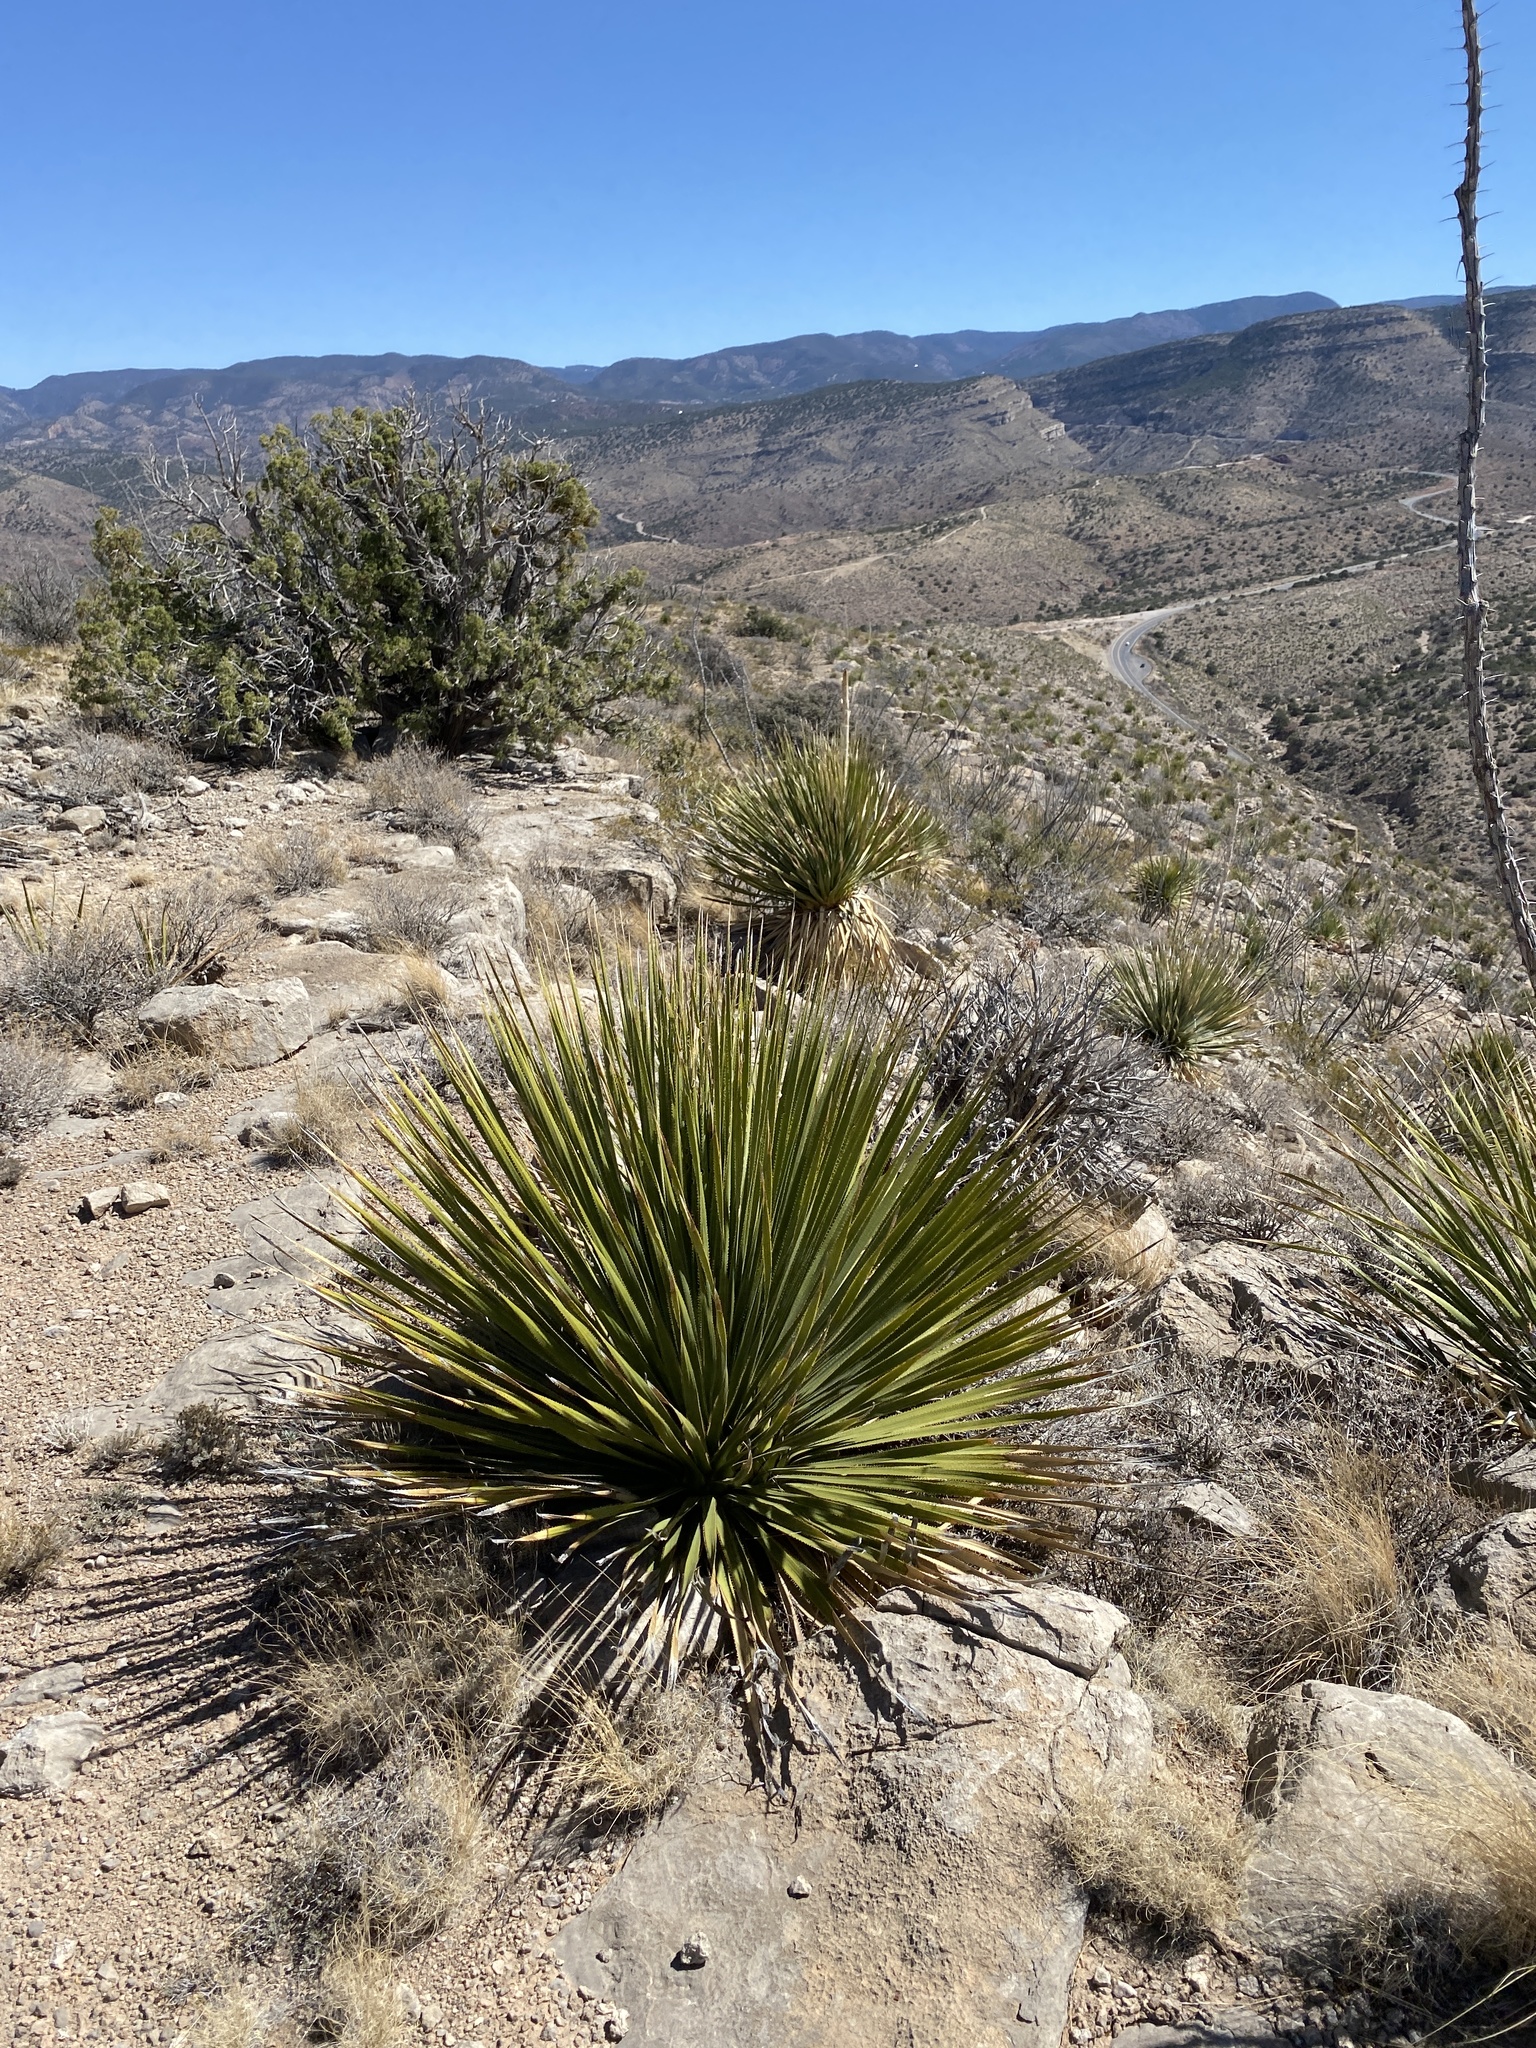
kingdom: Plantae
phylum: Tracheophyta
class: Liliopsida
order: Asparagales
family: Asparagaceae
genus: Dasylirion
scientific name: Dasylirion wheeleri
